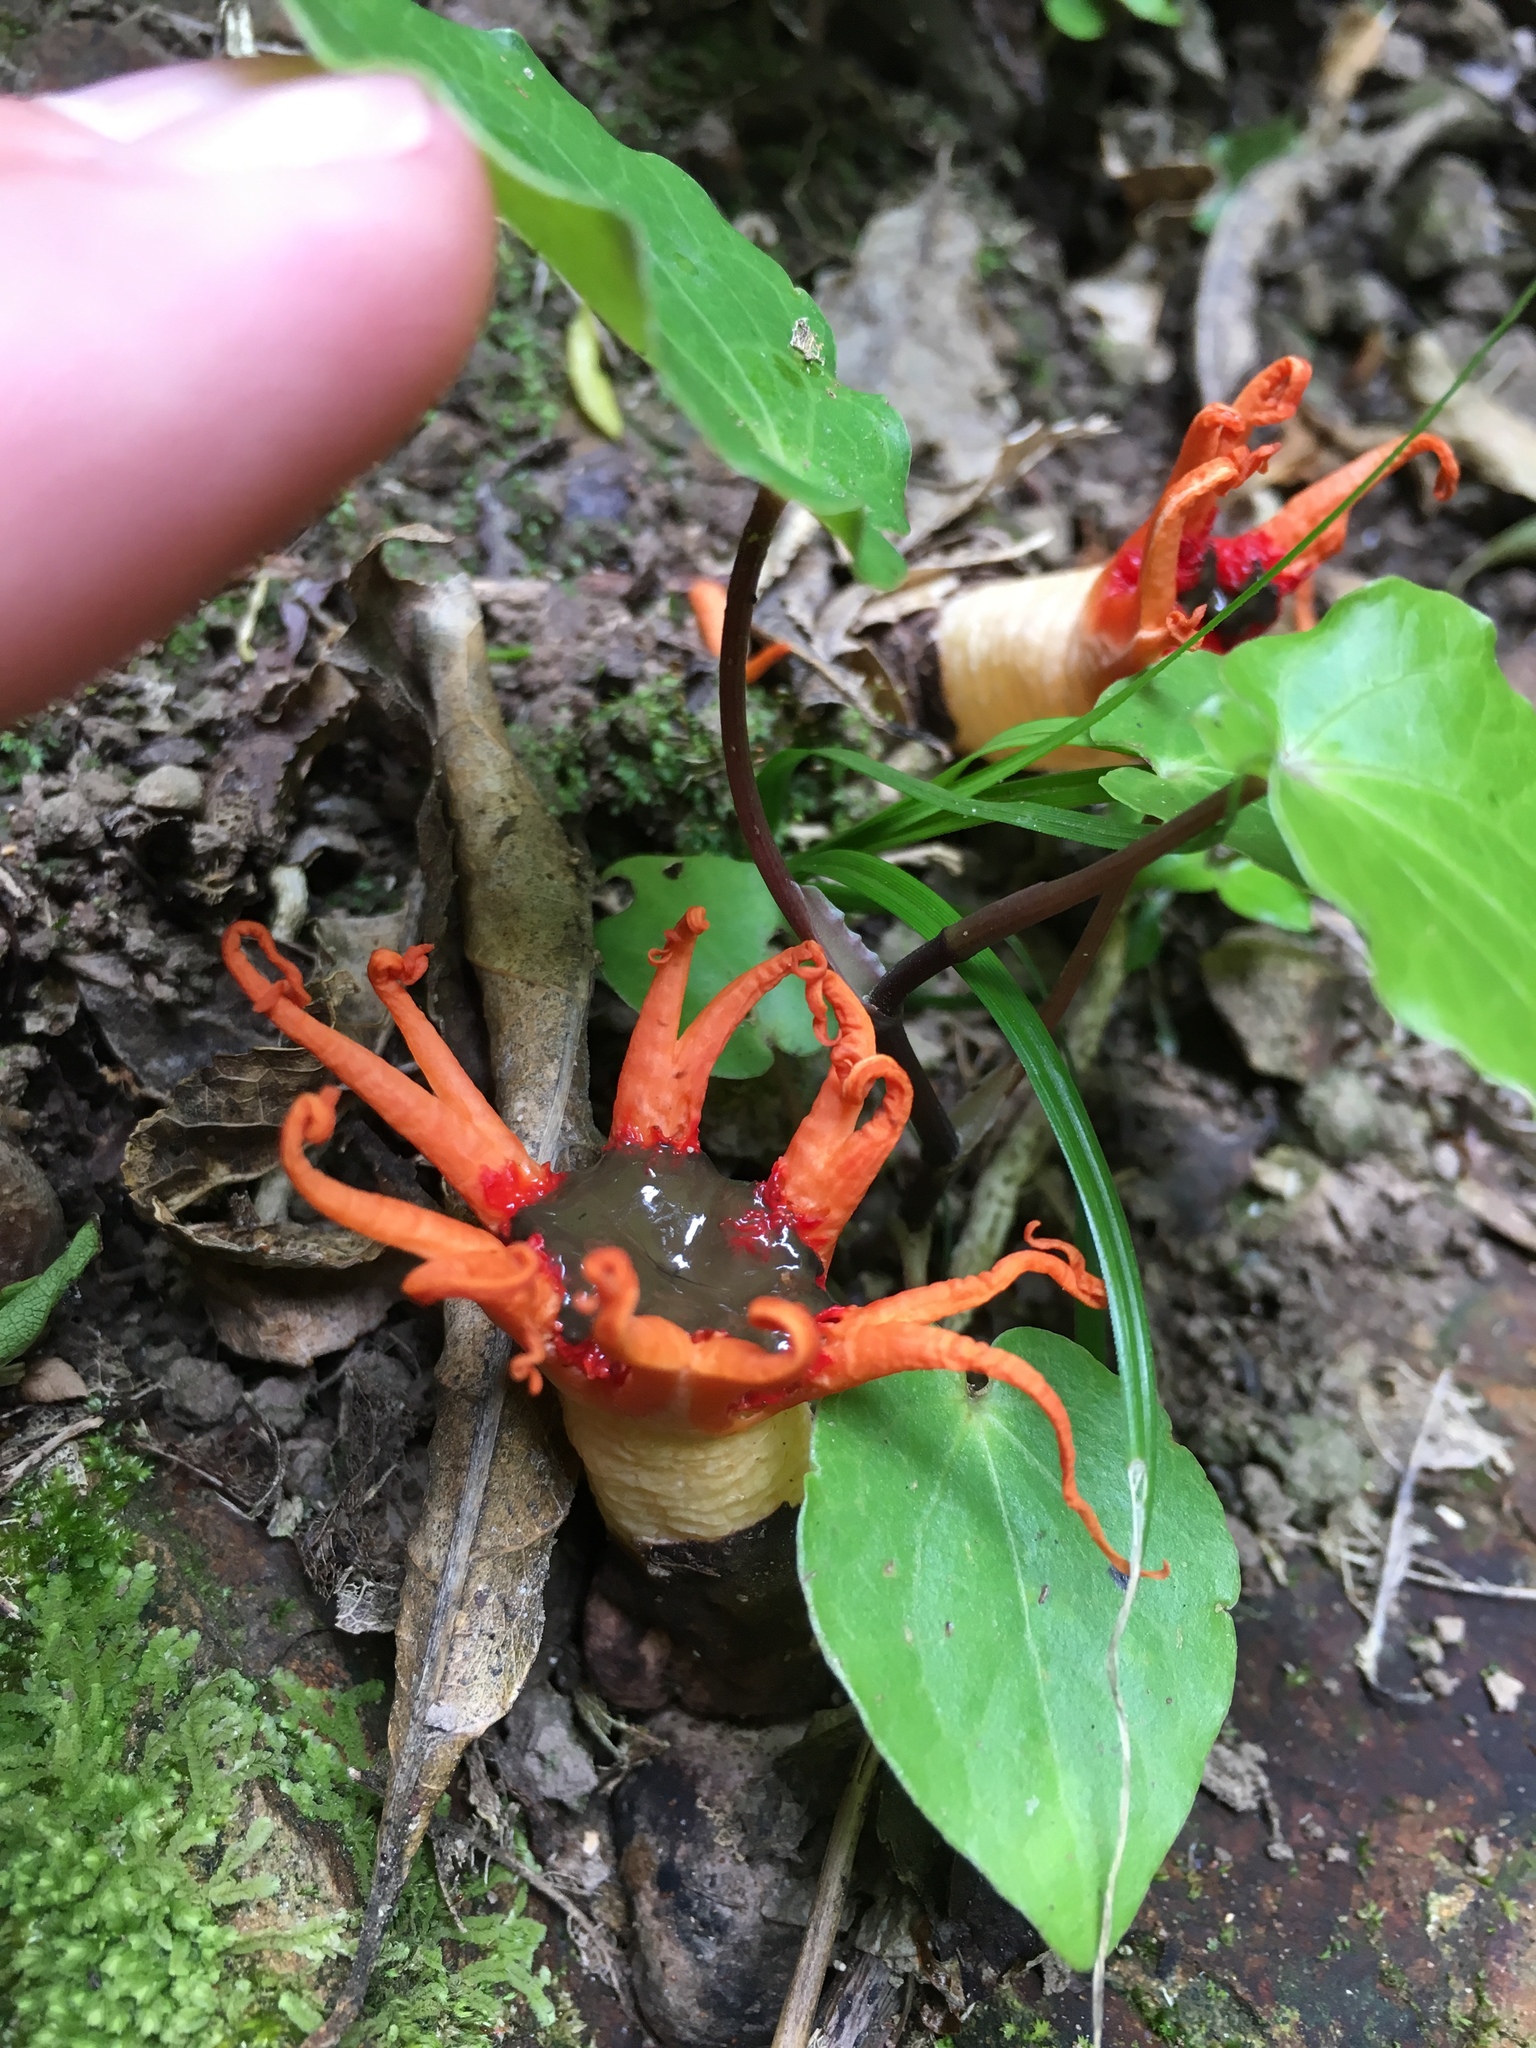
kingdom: Fungi
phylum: Basidiomycota
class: Agaricomycetes
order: Phallales
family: Phallaceae
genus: Aseroe
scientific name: Aseroe rubra
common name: Starfish fungus
